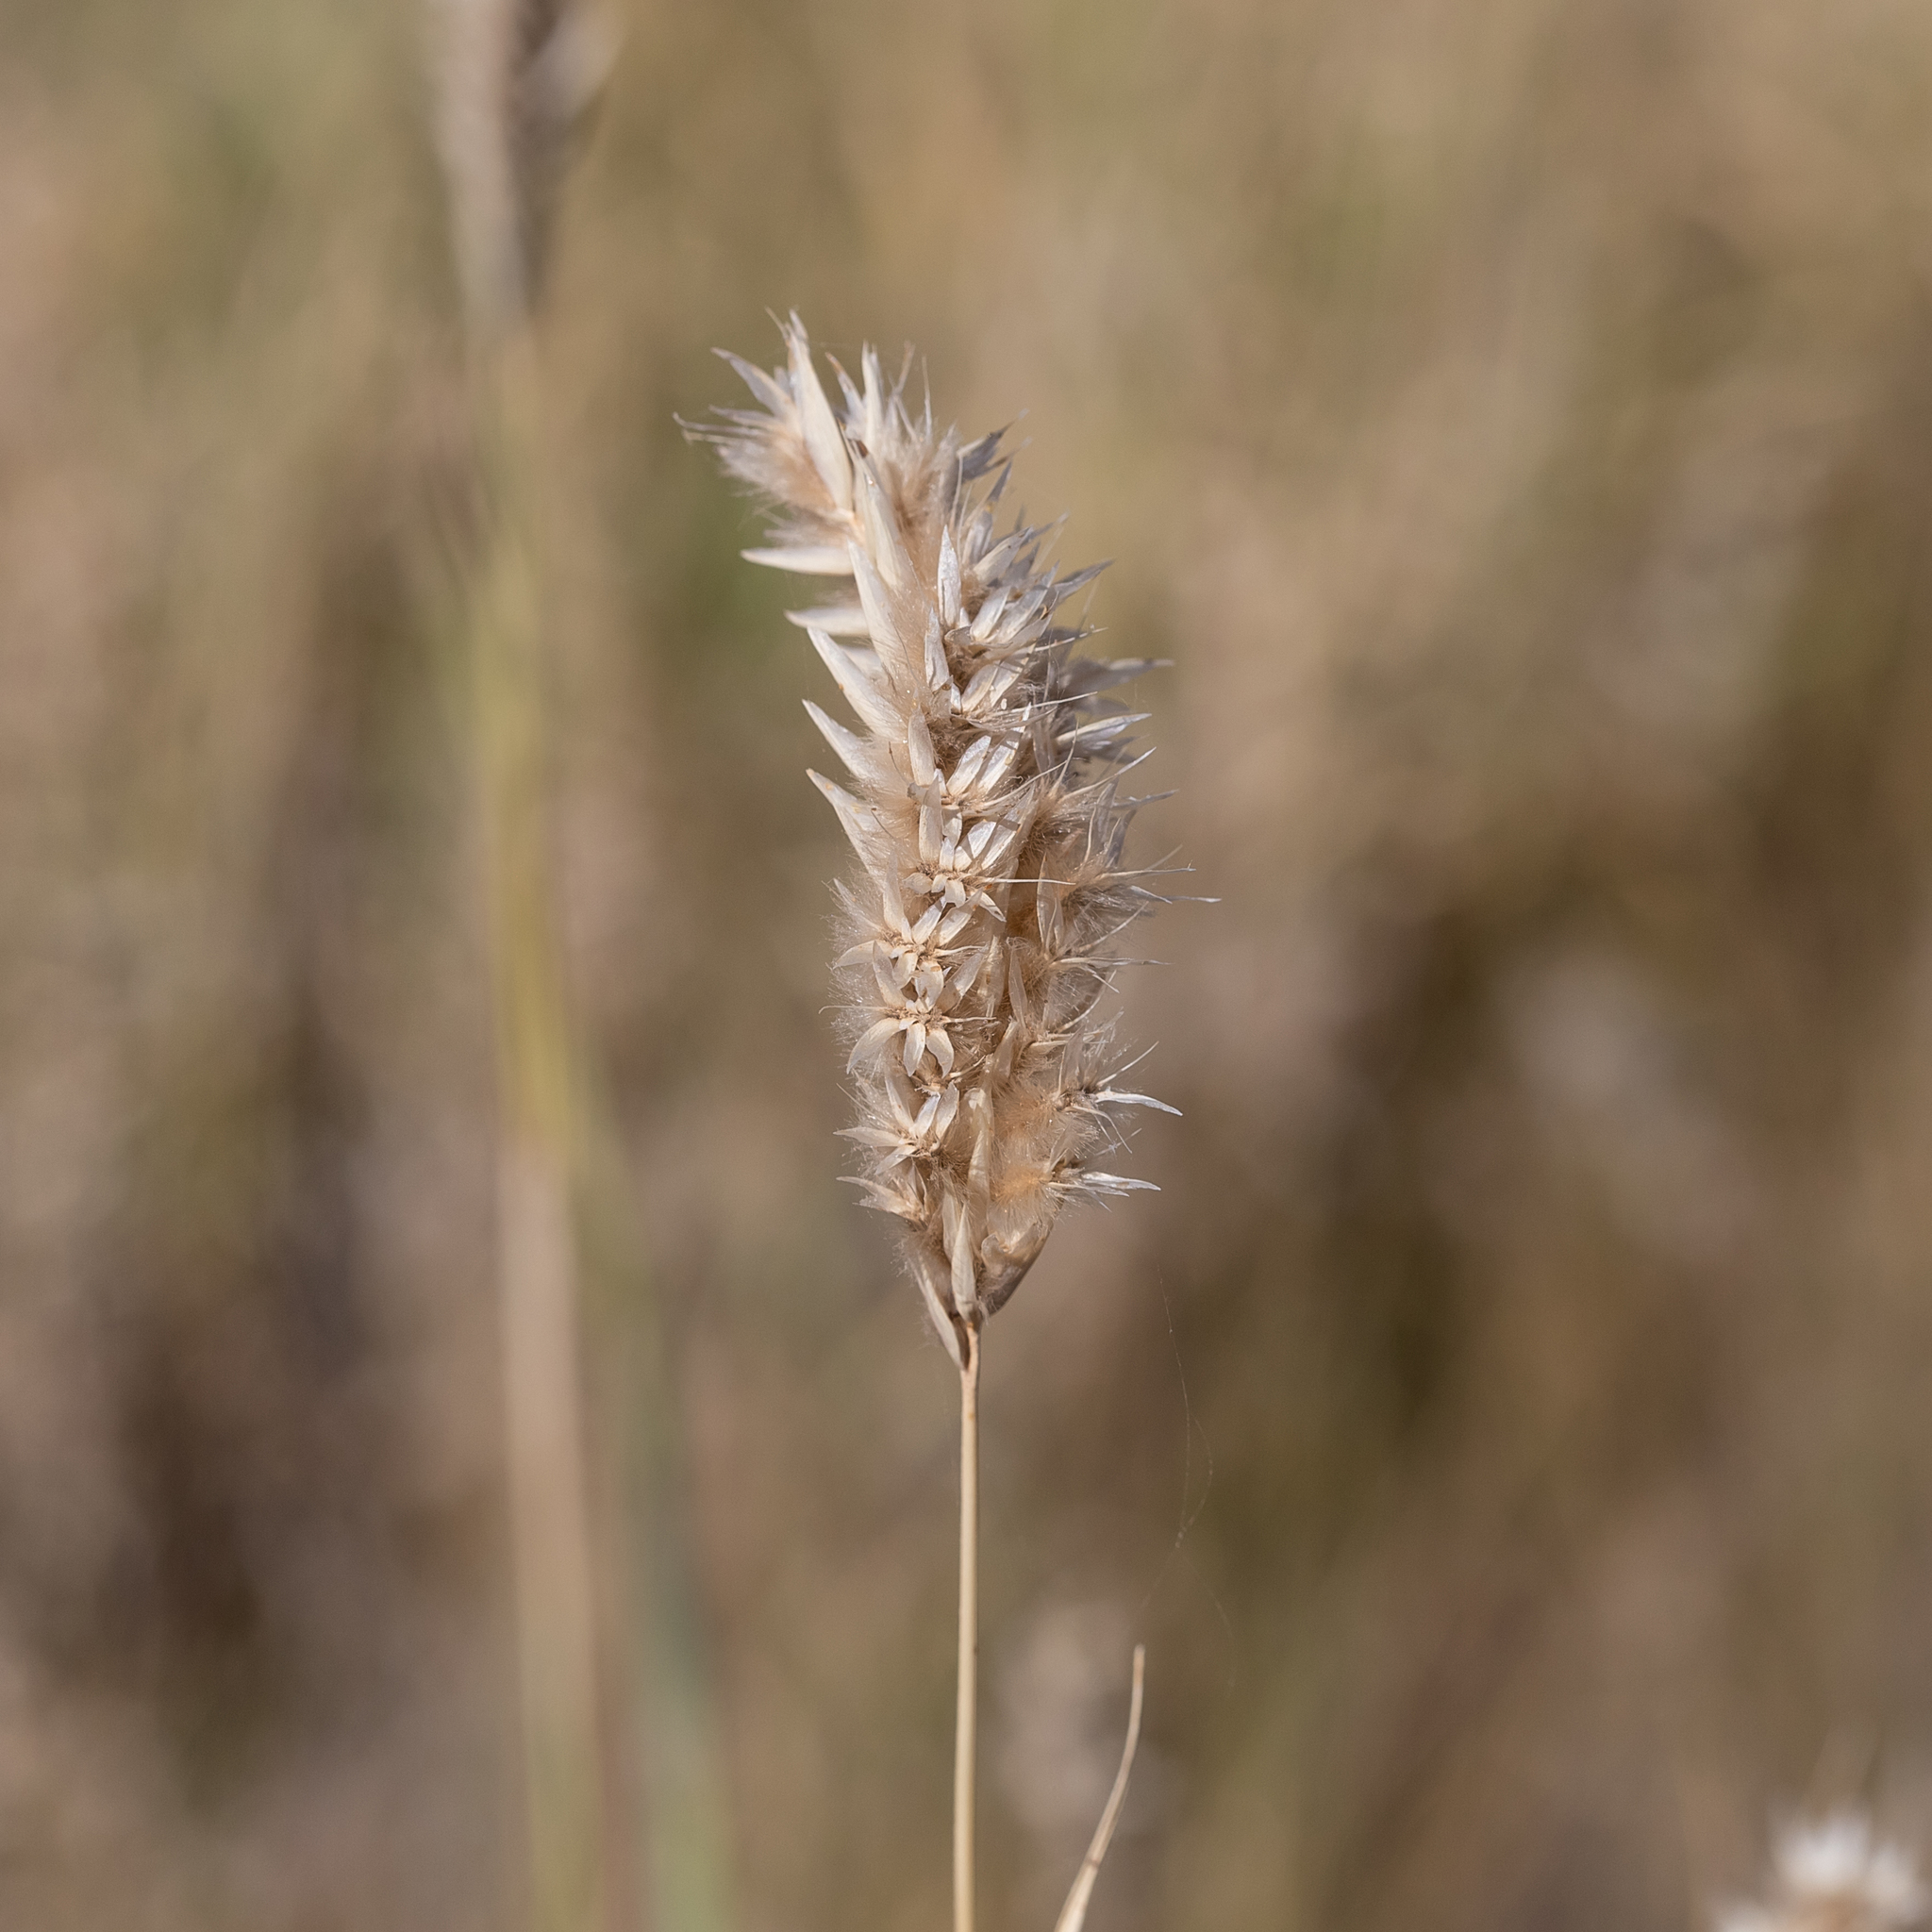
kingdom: Plantae
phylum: Tracheophyta
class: Liliopsida
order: Poales
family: Poaceae
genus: Astrebla
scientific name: Astrebla pectinata
